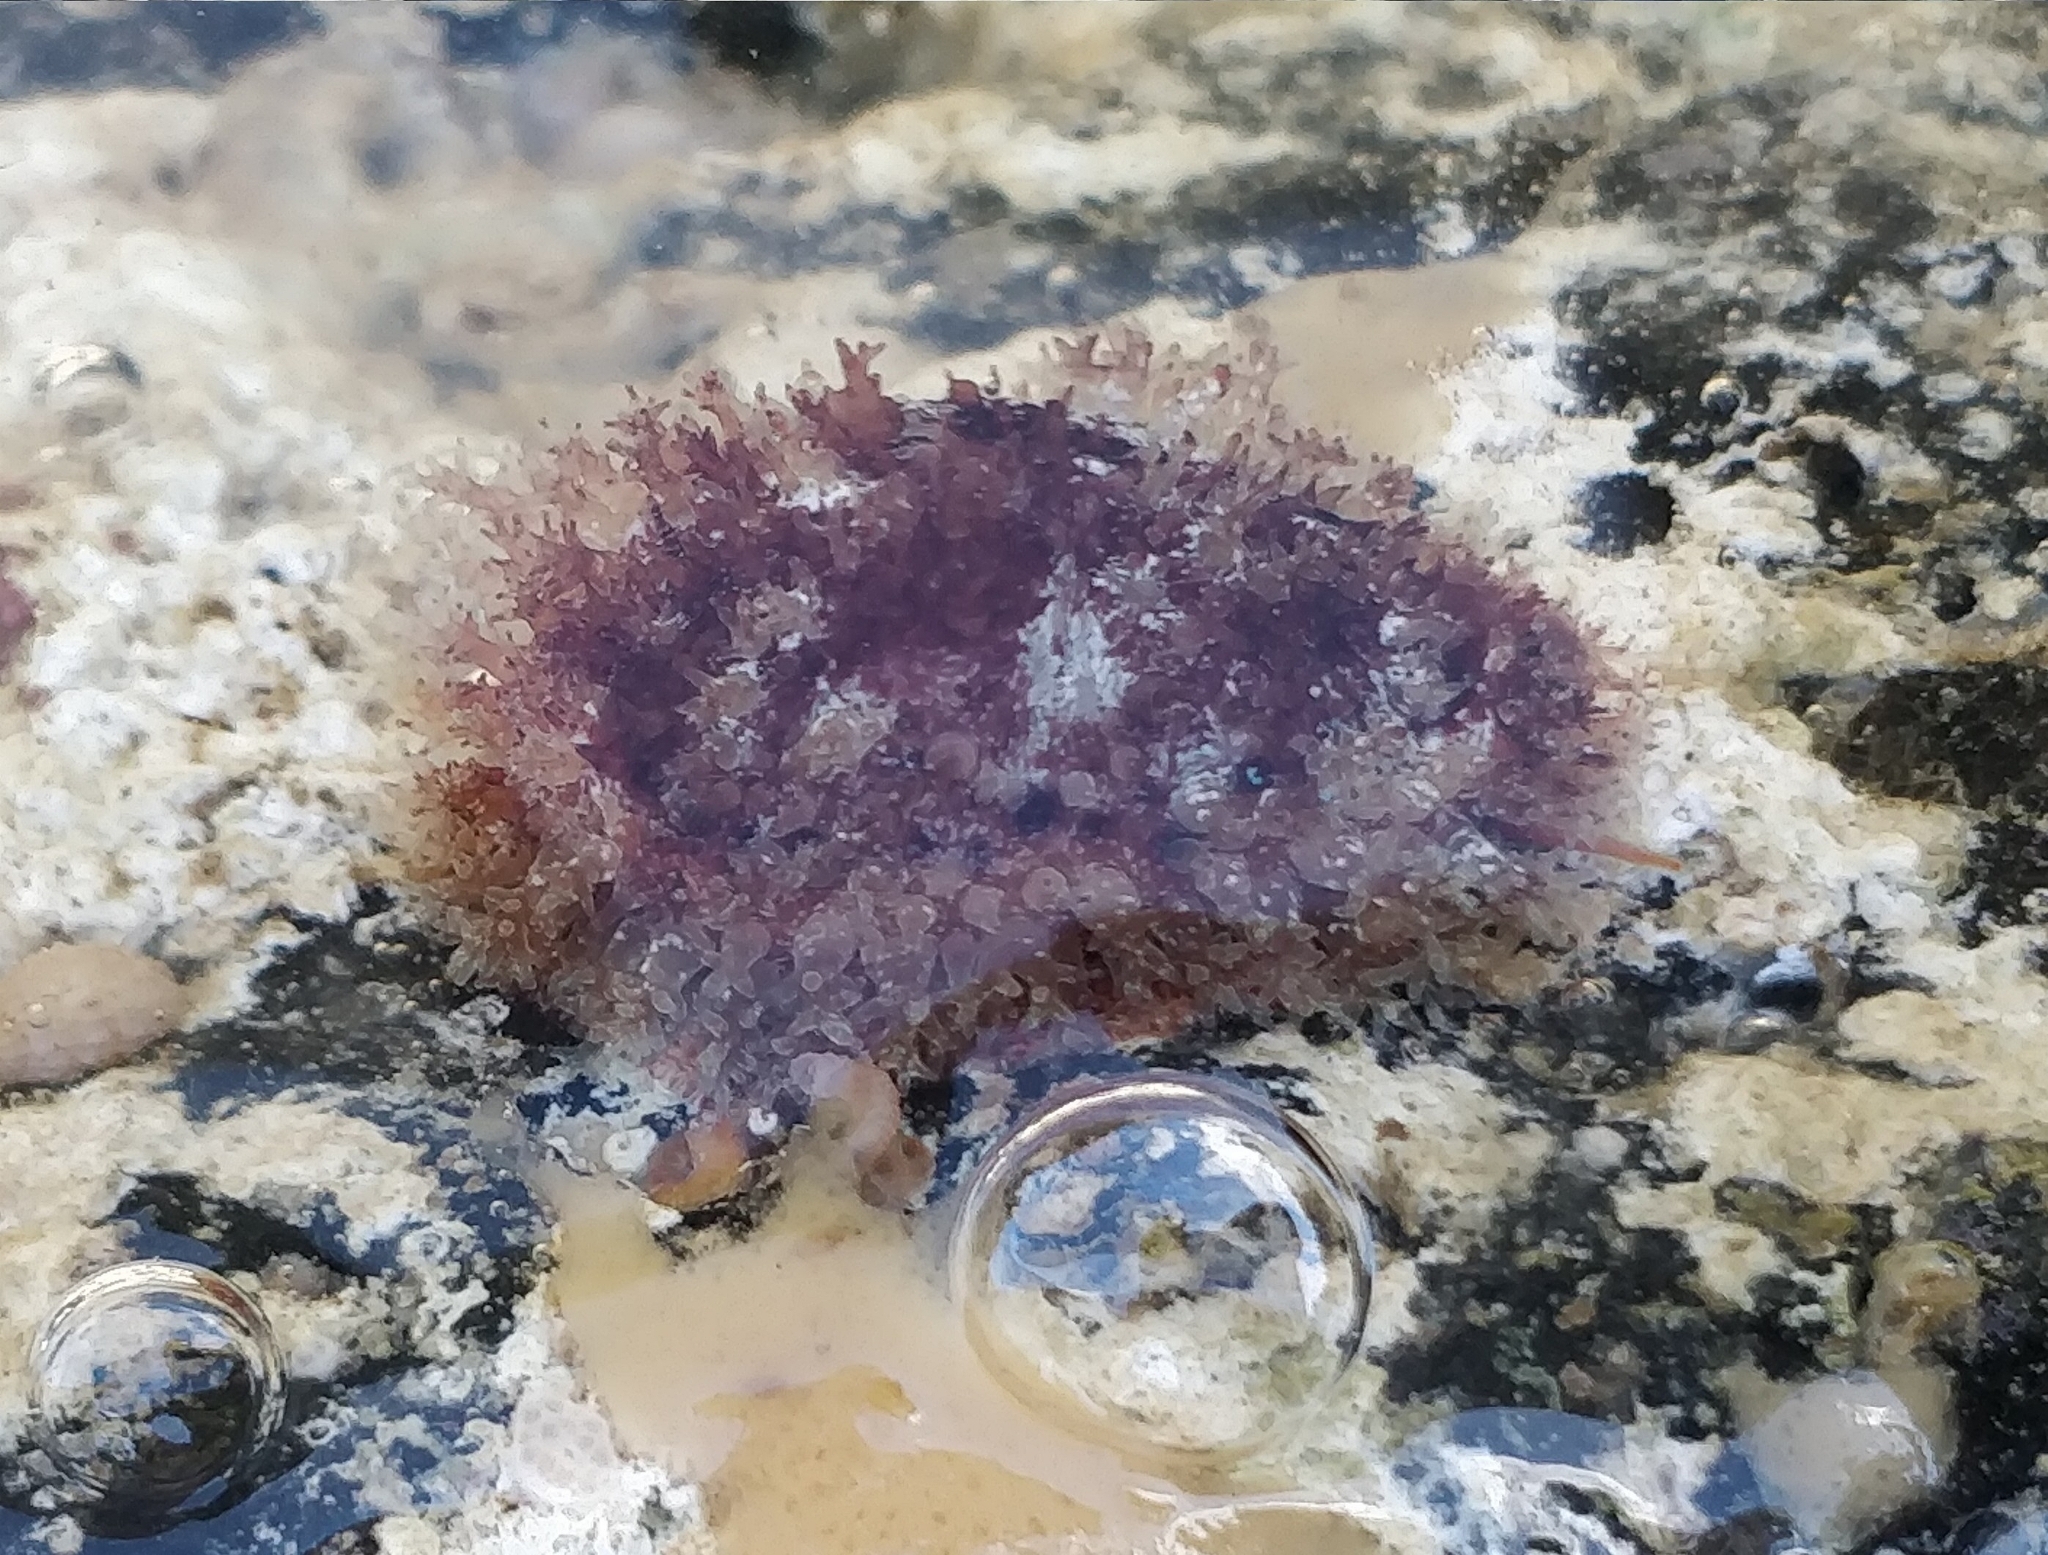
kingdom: Animalia
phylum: Mollusca
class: Gastropoda
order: Littorinimorpha
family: Cypraeidae
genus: Naria
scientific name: Naria spurca
